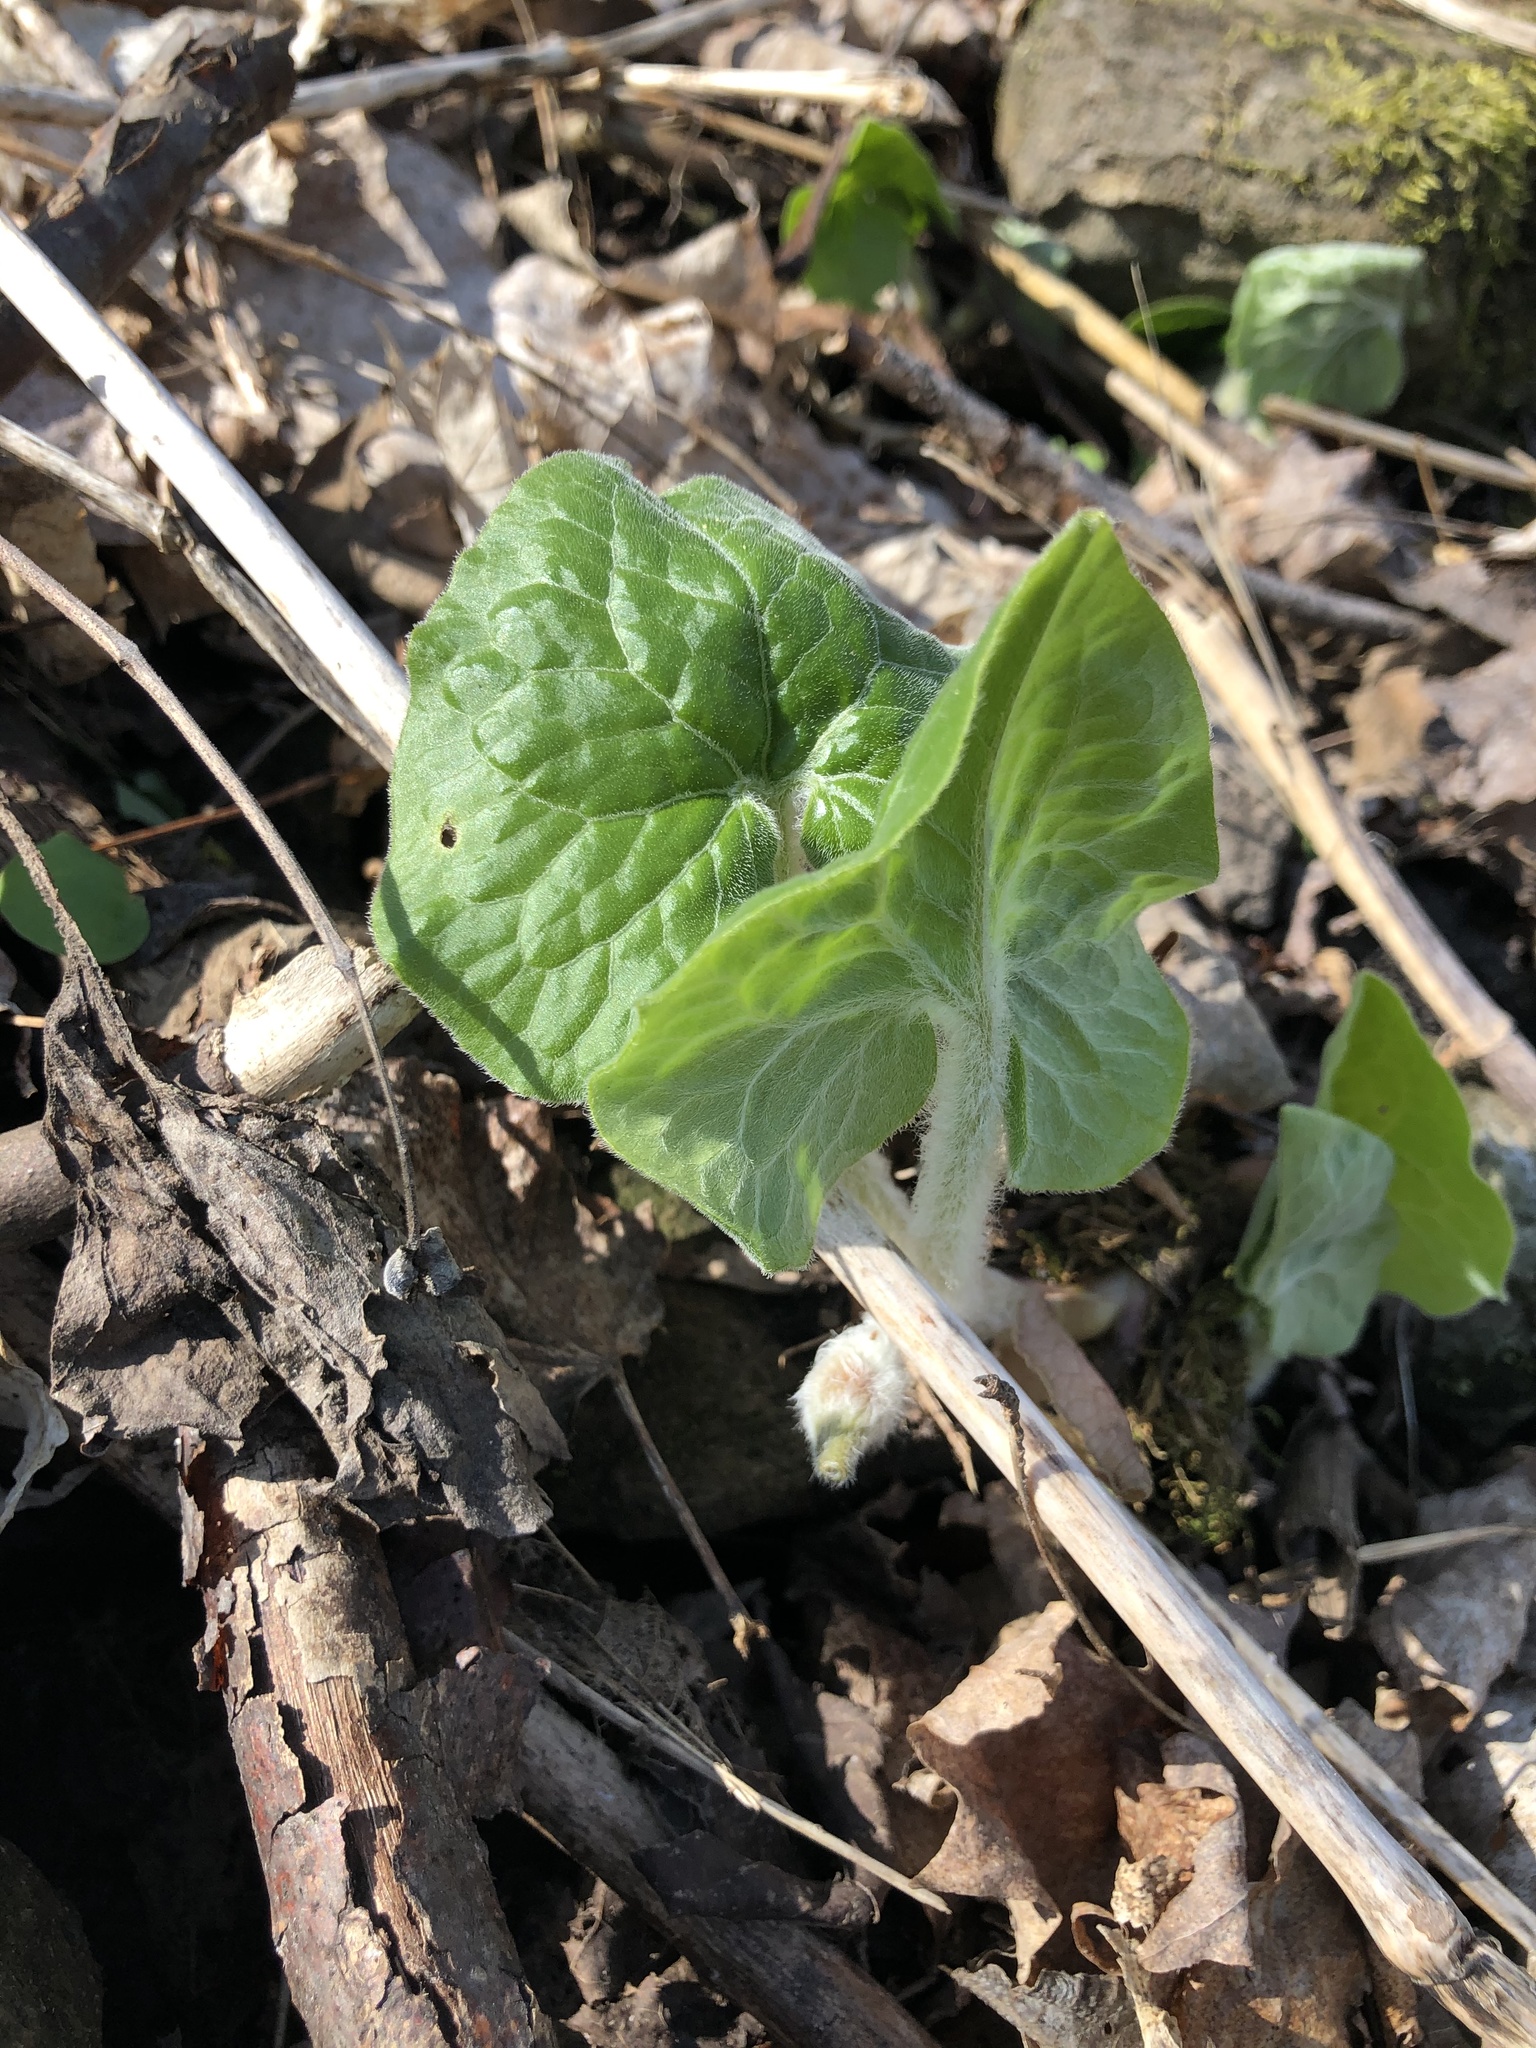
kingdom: Plantae
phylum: Tracheophyta
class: Magnoliopsida
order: Piperales
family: Aristolochiaceae
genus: Asarum
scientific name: Asarum canadense
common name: Wild ginger
